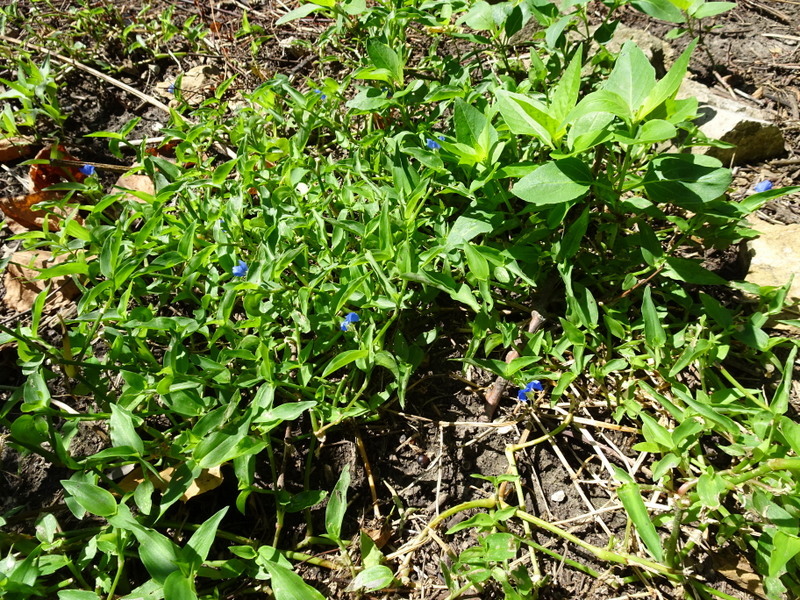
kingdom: Plantae
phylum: Tracheophyta
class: Liliopsida
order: Commelinales
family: Commelinaceae
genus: Commelina
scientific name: Commelina communis
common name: Asiatic dayflower
